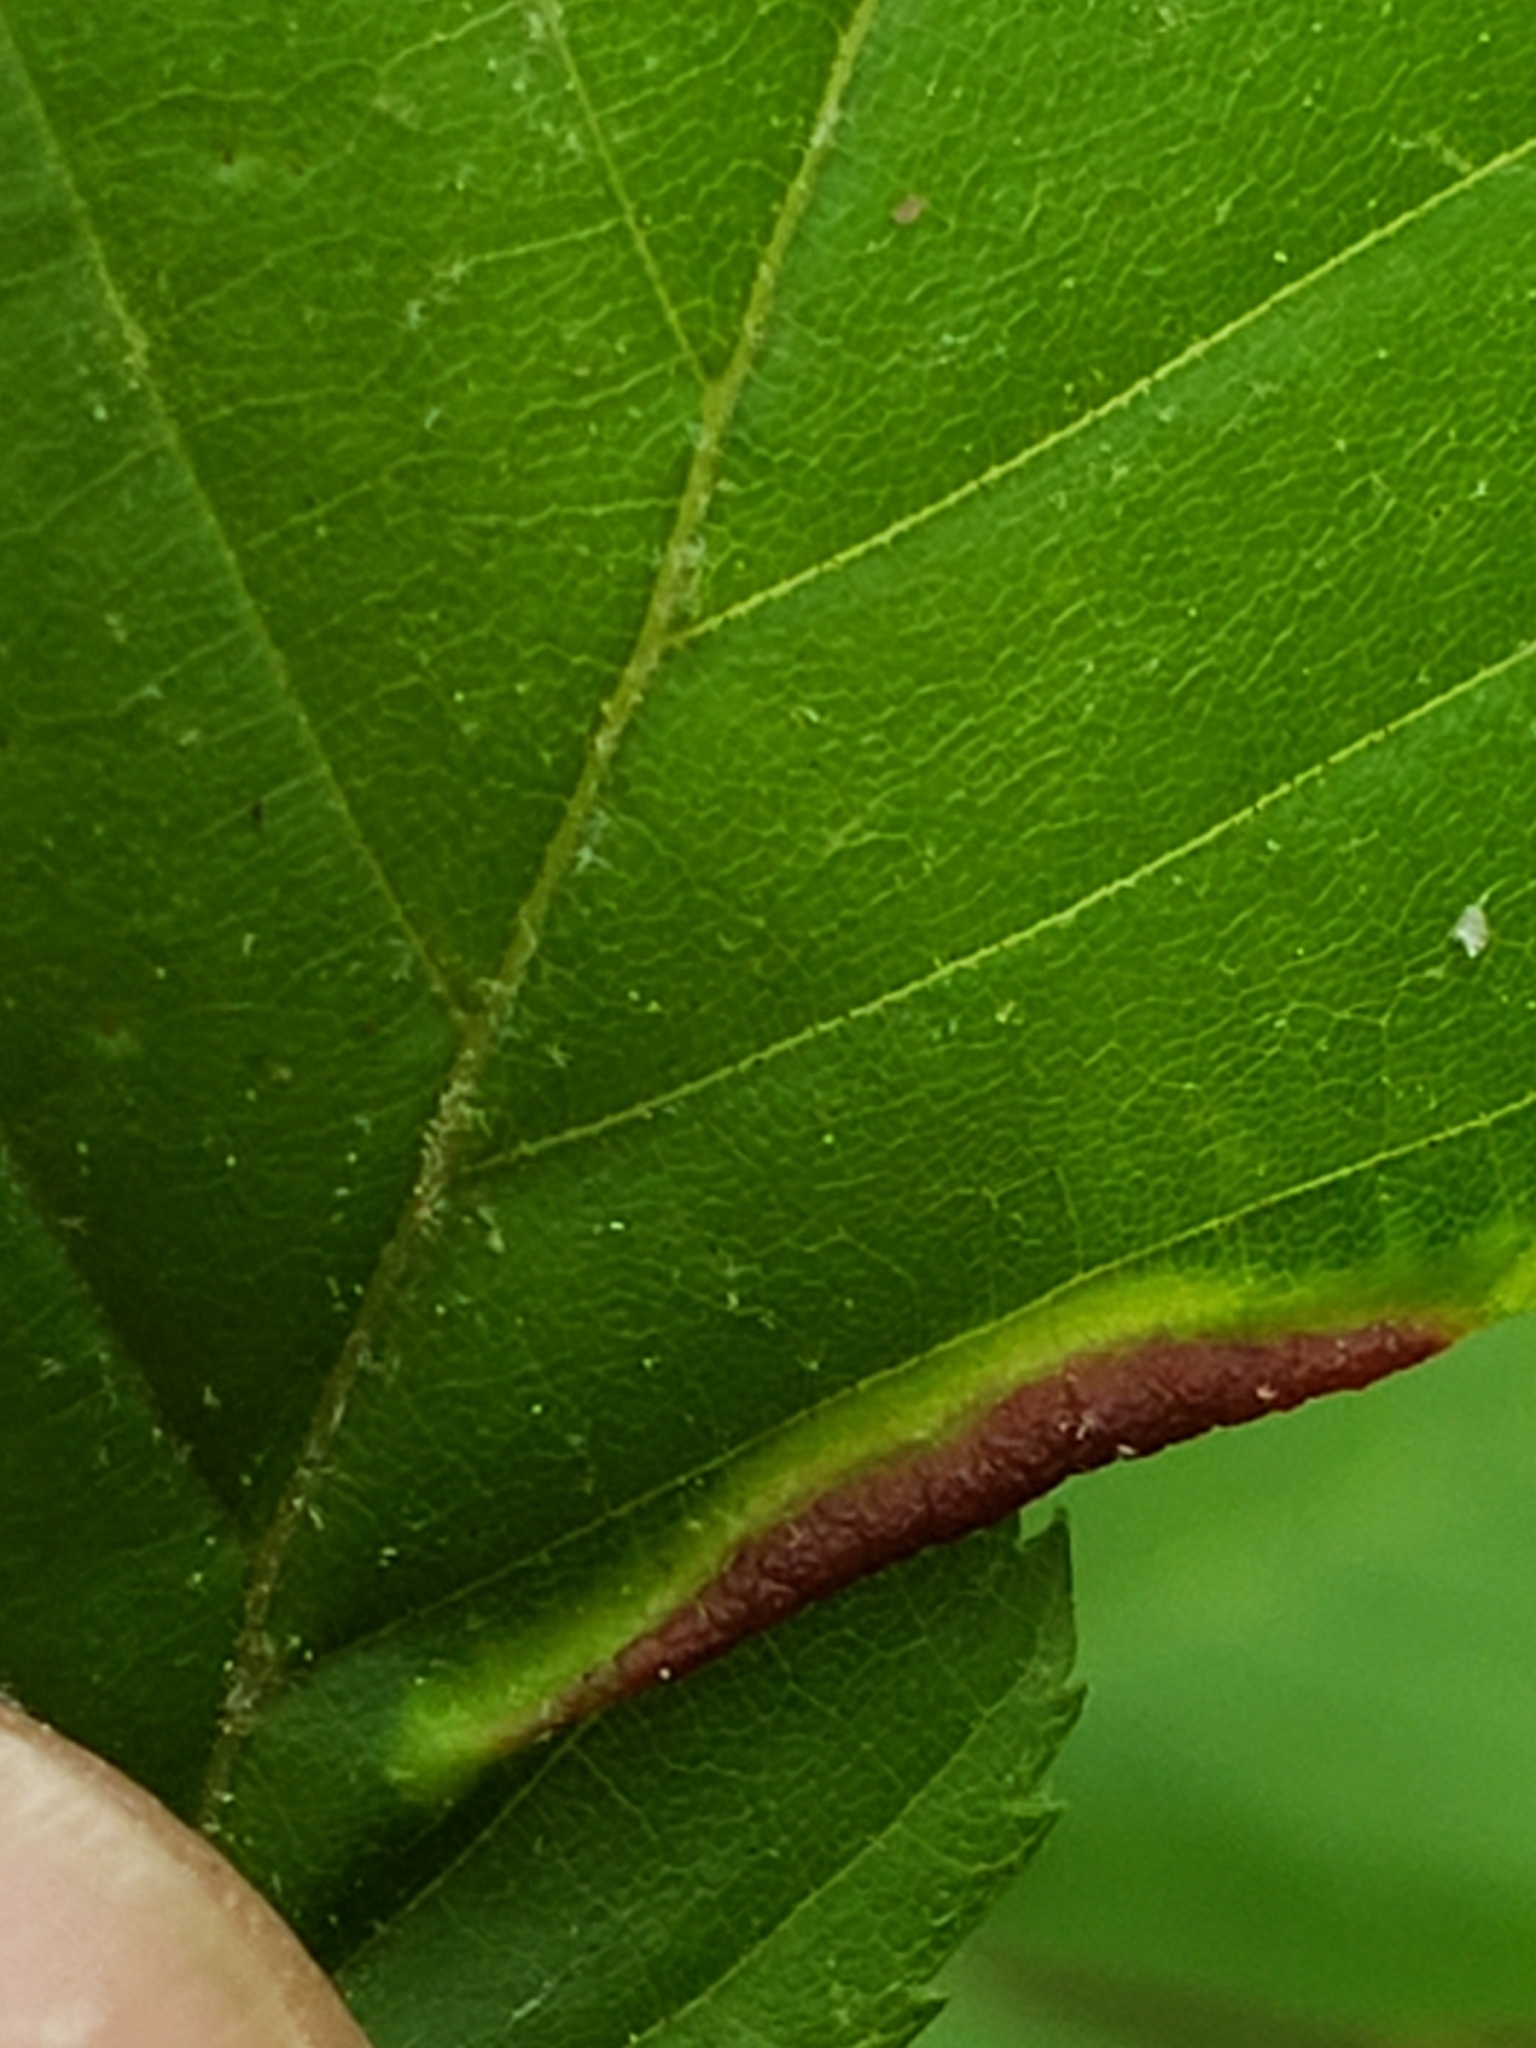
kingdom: Animalia
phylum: Arthropoda
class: Insecta
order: Diptera
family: Cecidomyiidae
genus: Dasineura
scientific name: Dasineura pudibunda
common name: Hornbeam leaf gall midge
